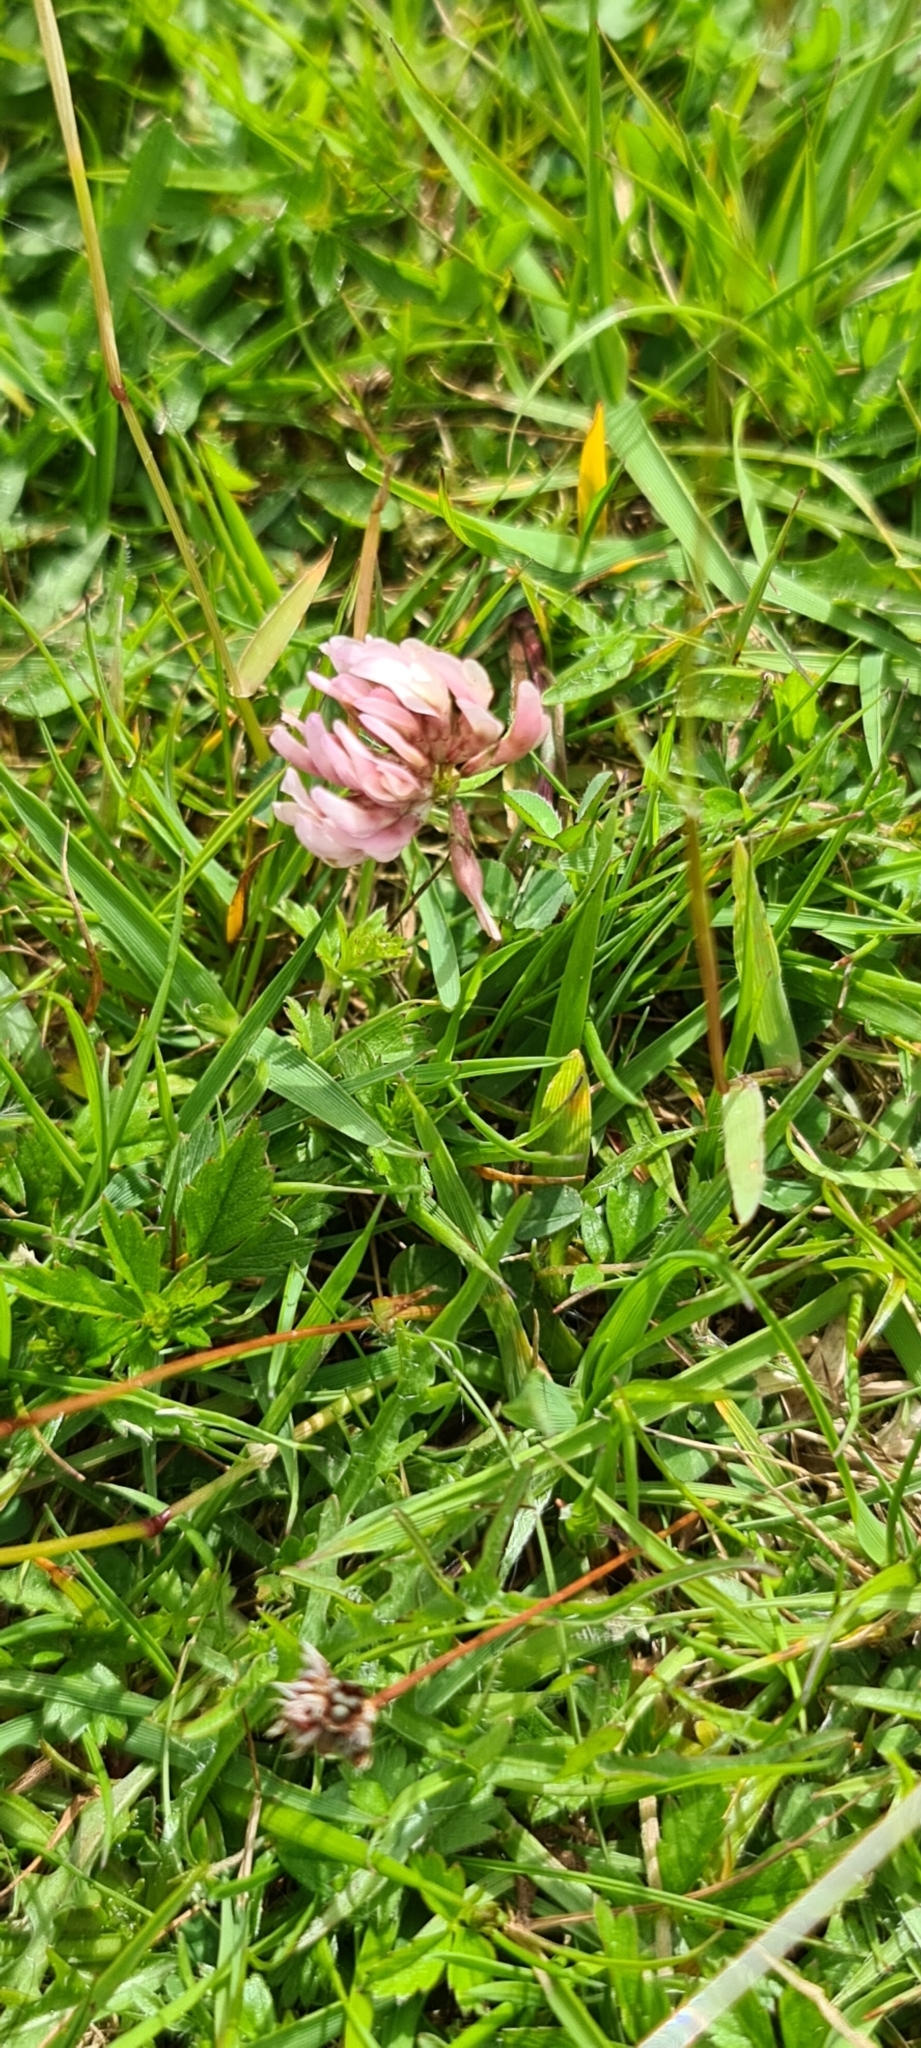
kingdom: Plantae
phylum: Tracheophyta
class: Magnoliopsida
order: Fabales
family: Fabaceae
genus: Trifolium
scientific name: Trifolium repens
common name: White clover
